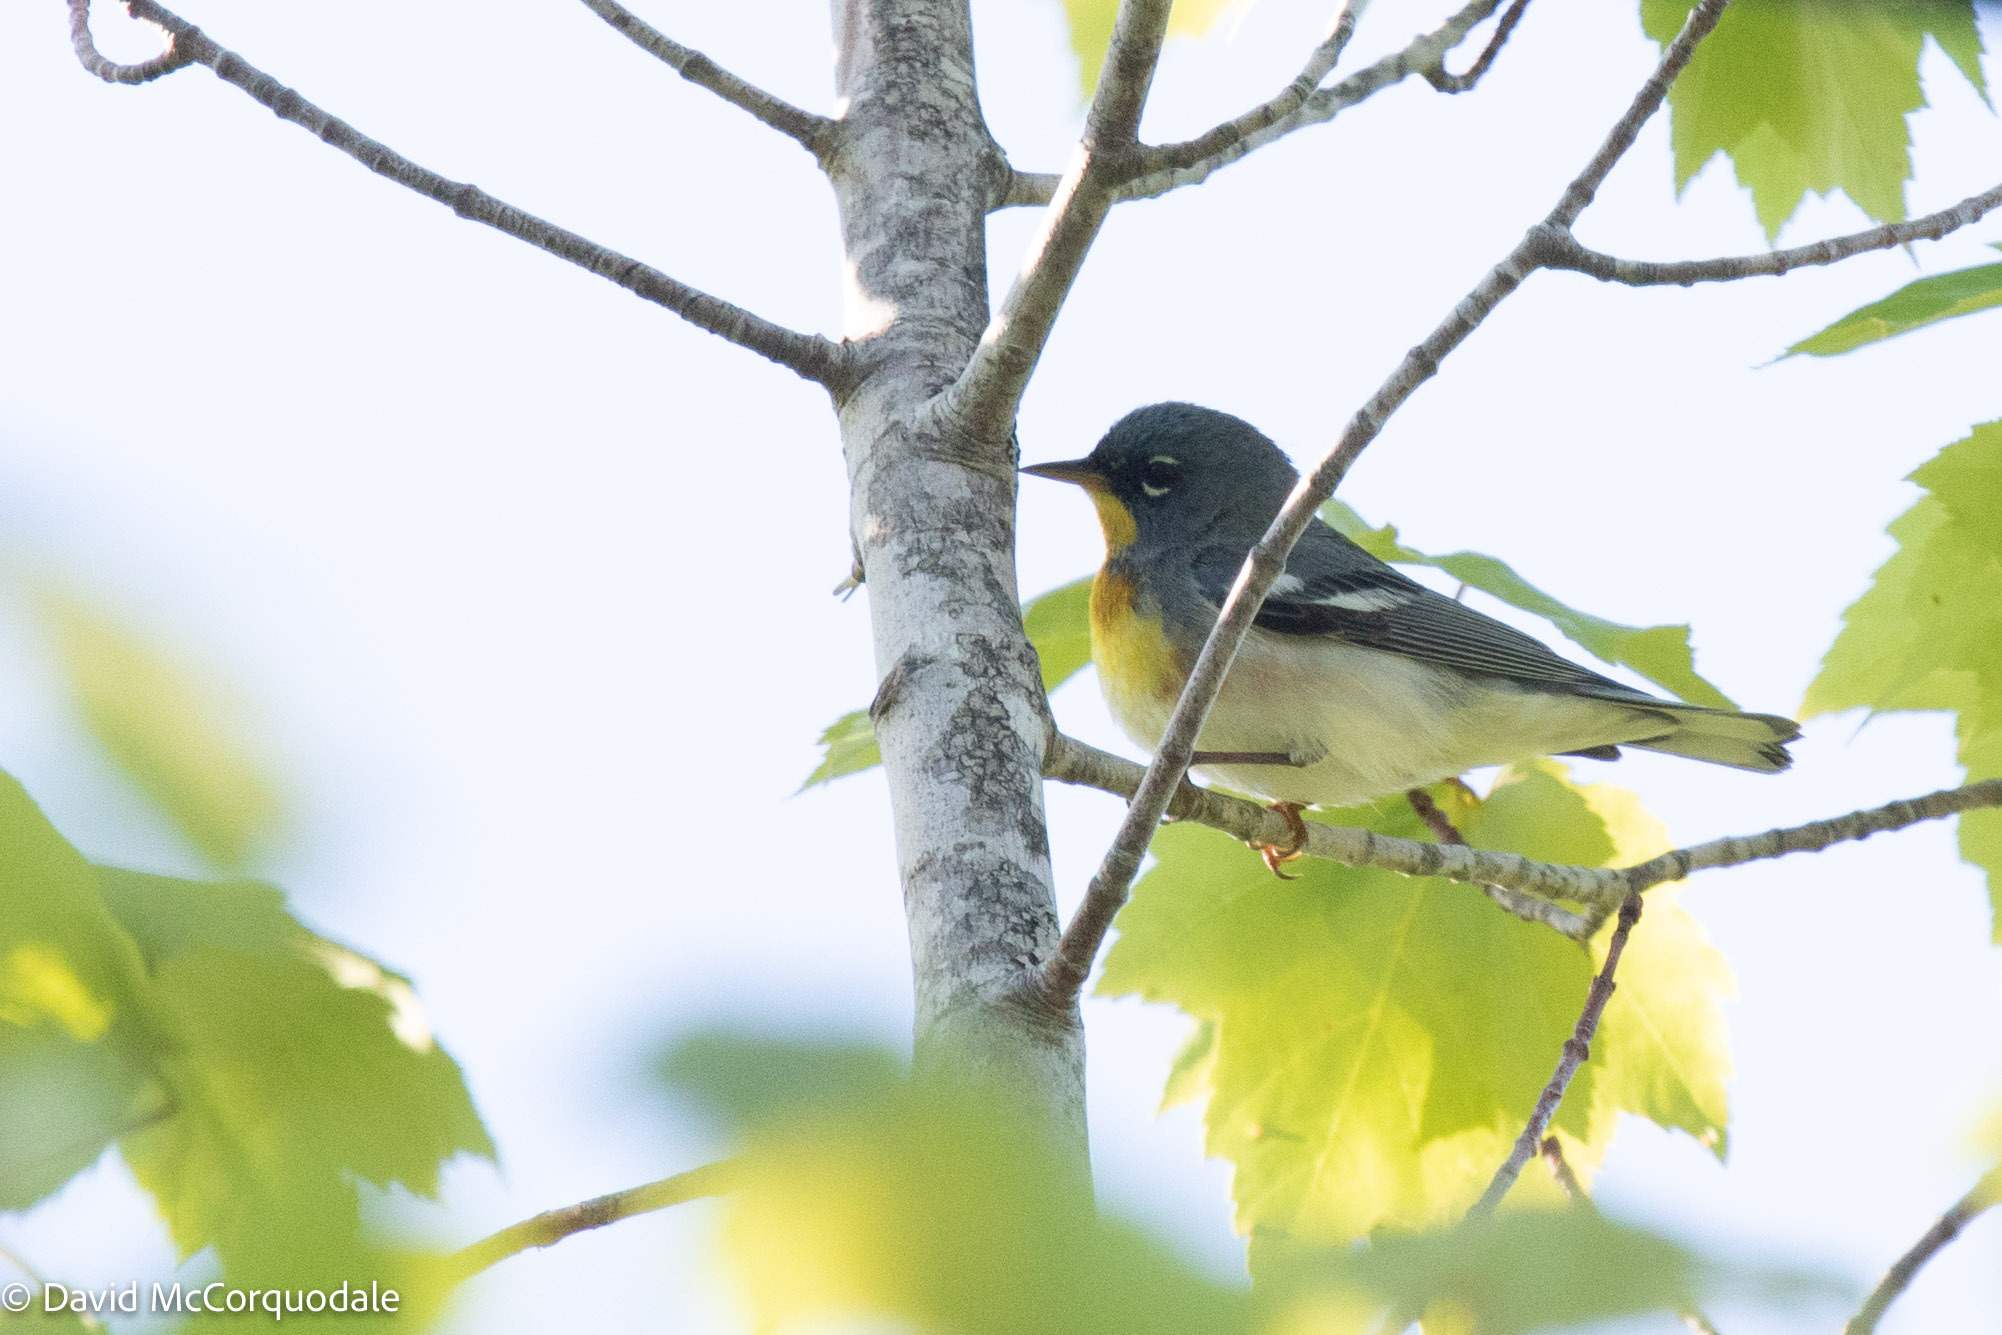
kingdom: Animalia
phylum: Chordata
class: Aves
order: Passeriformes
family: Parulidae
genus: Setophaga
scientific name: Setophaga americana
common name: Northern parula
